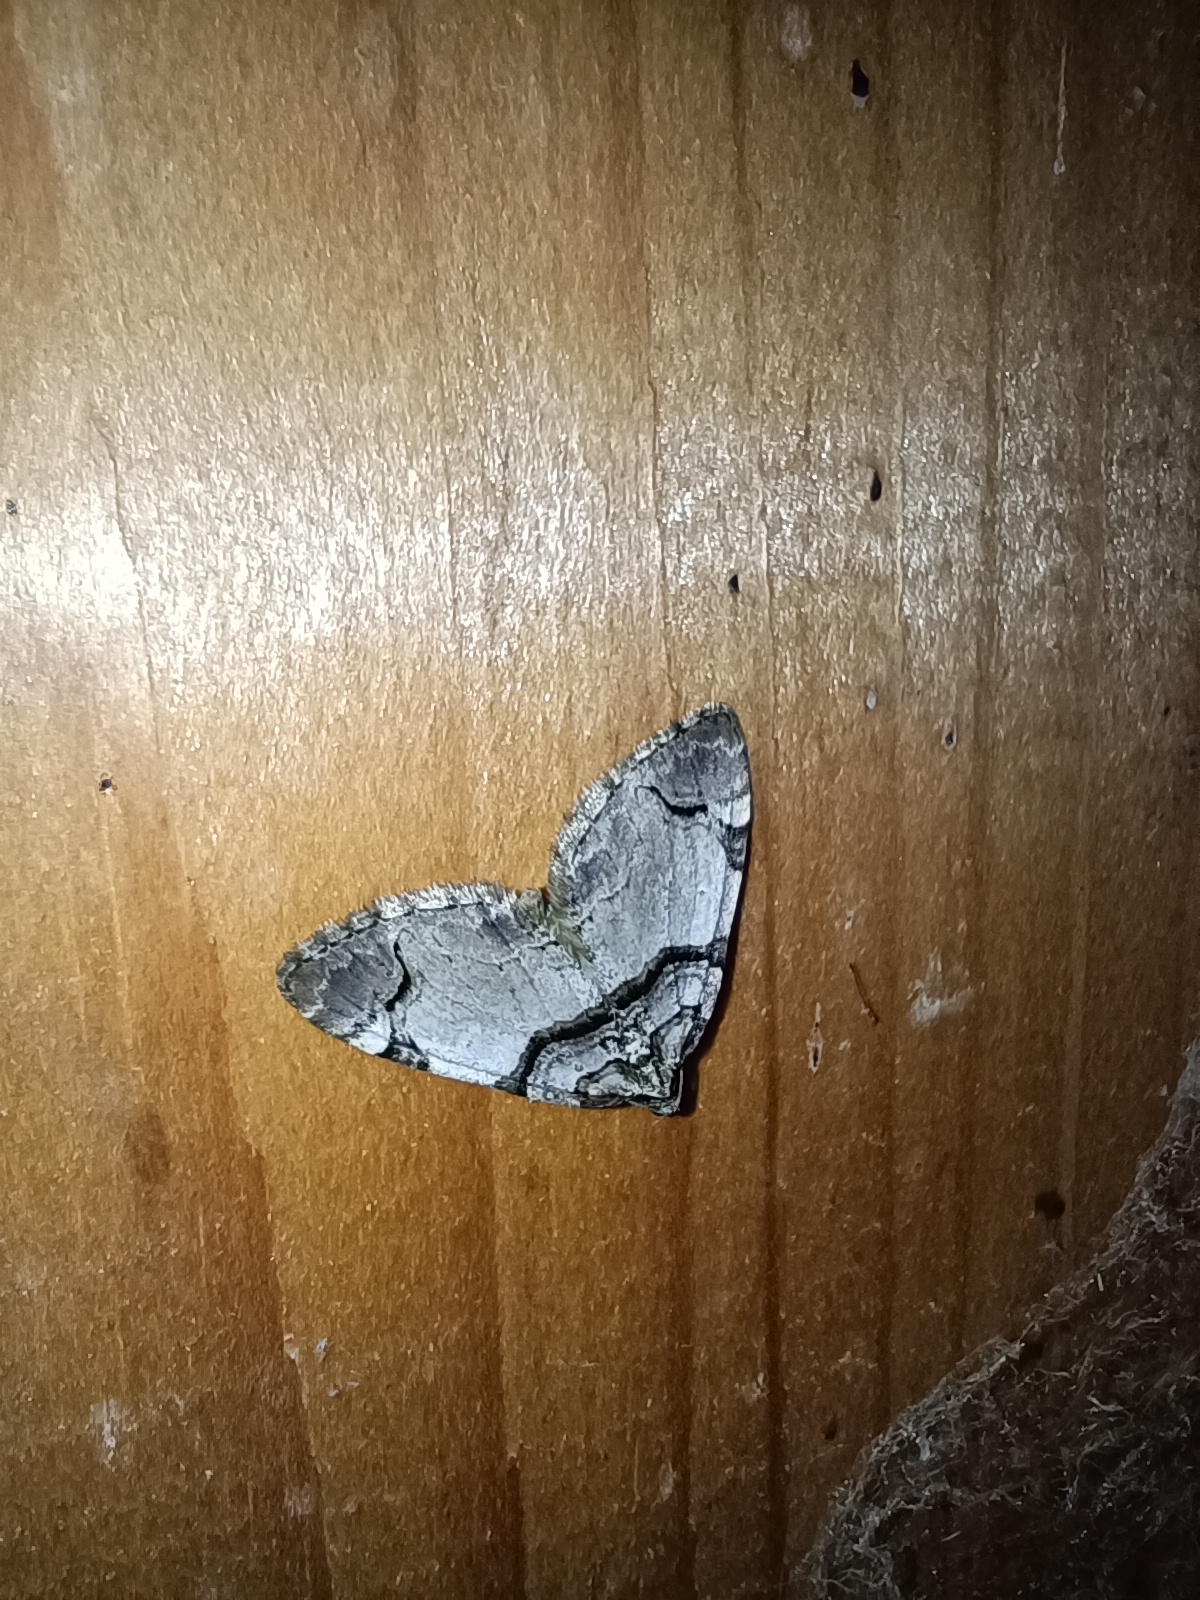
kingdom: Animalia
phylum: Arthropoda
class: Insecta
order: Lepidoptera
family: Geometridae
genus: Anticlea
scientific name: Anticlea derivata
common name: Streamer
